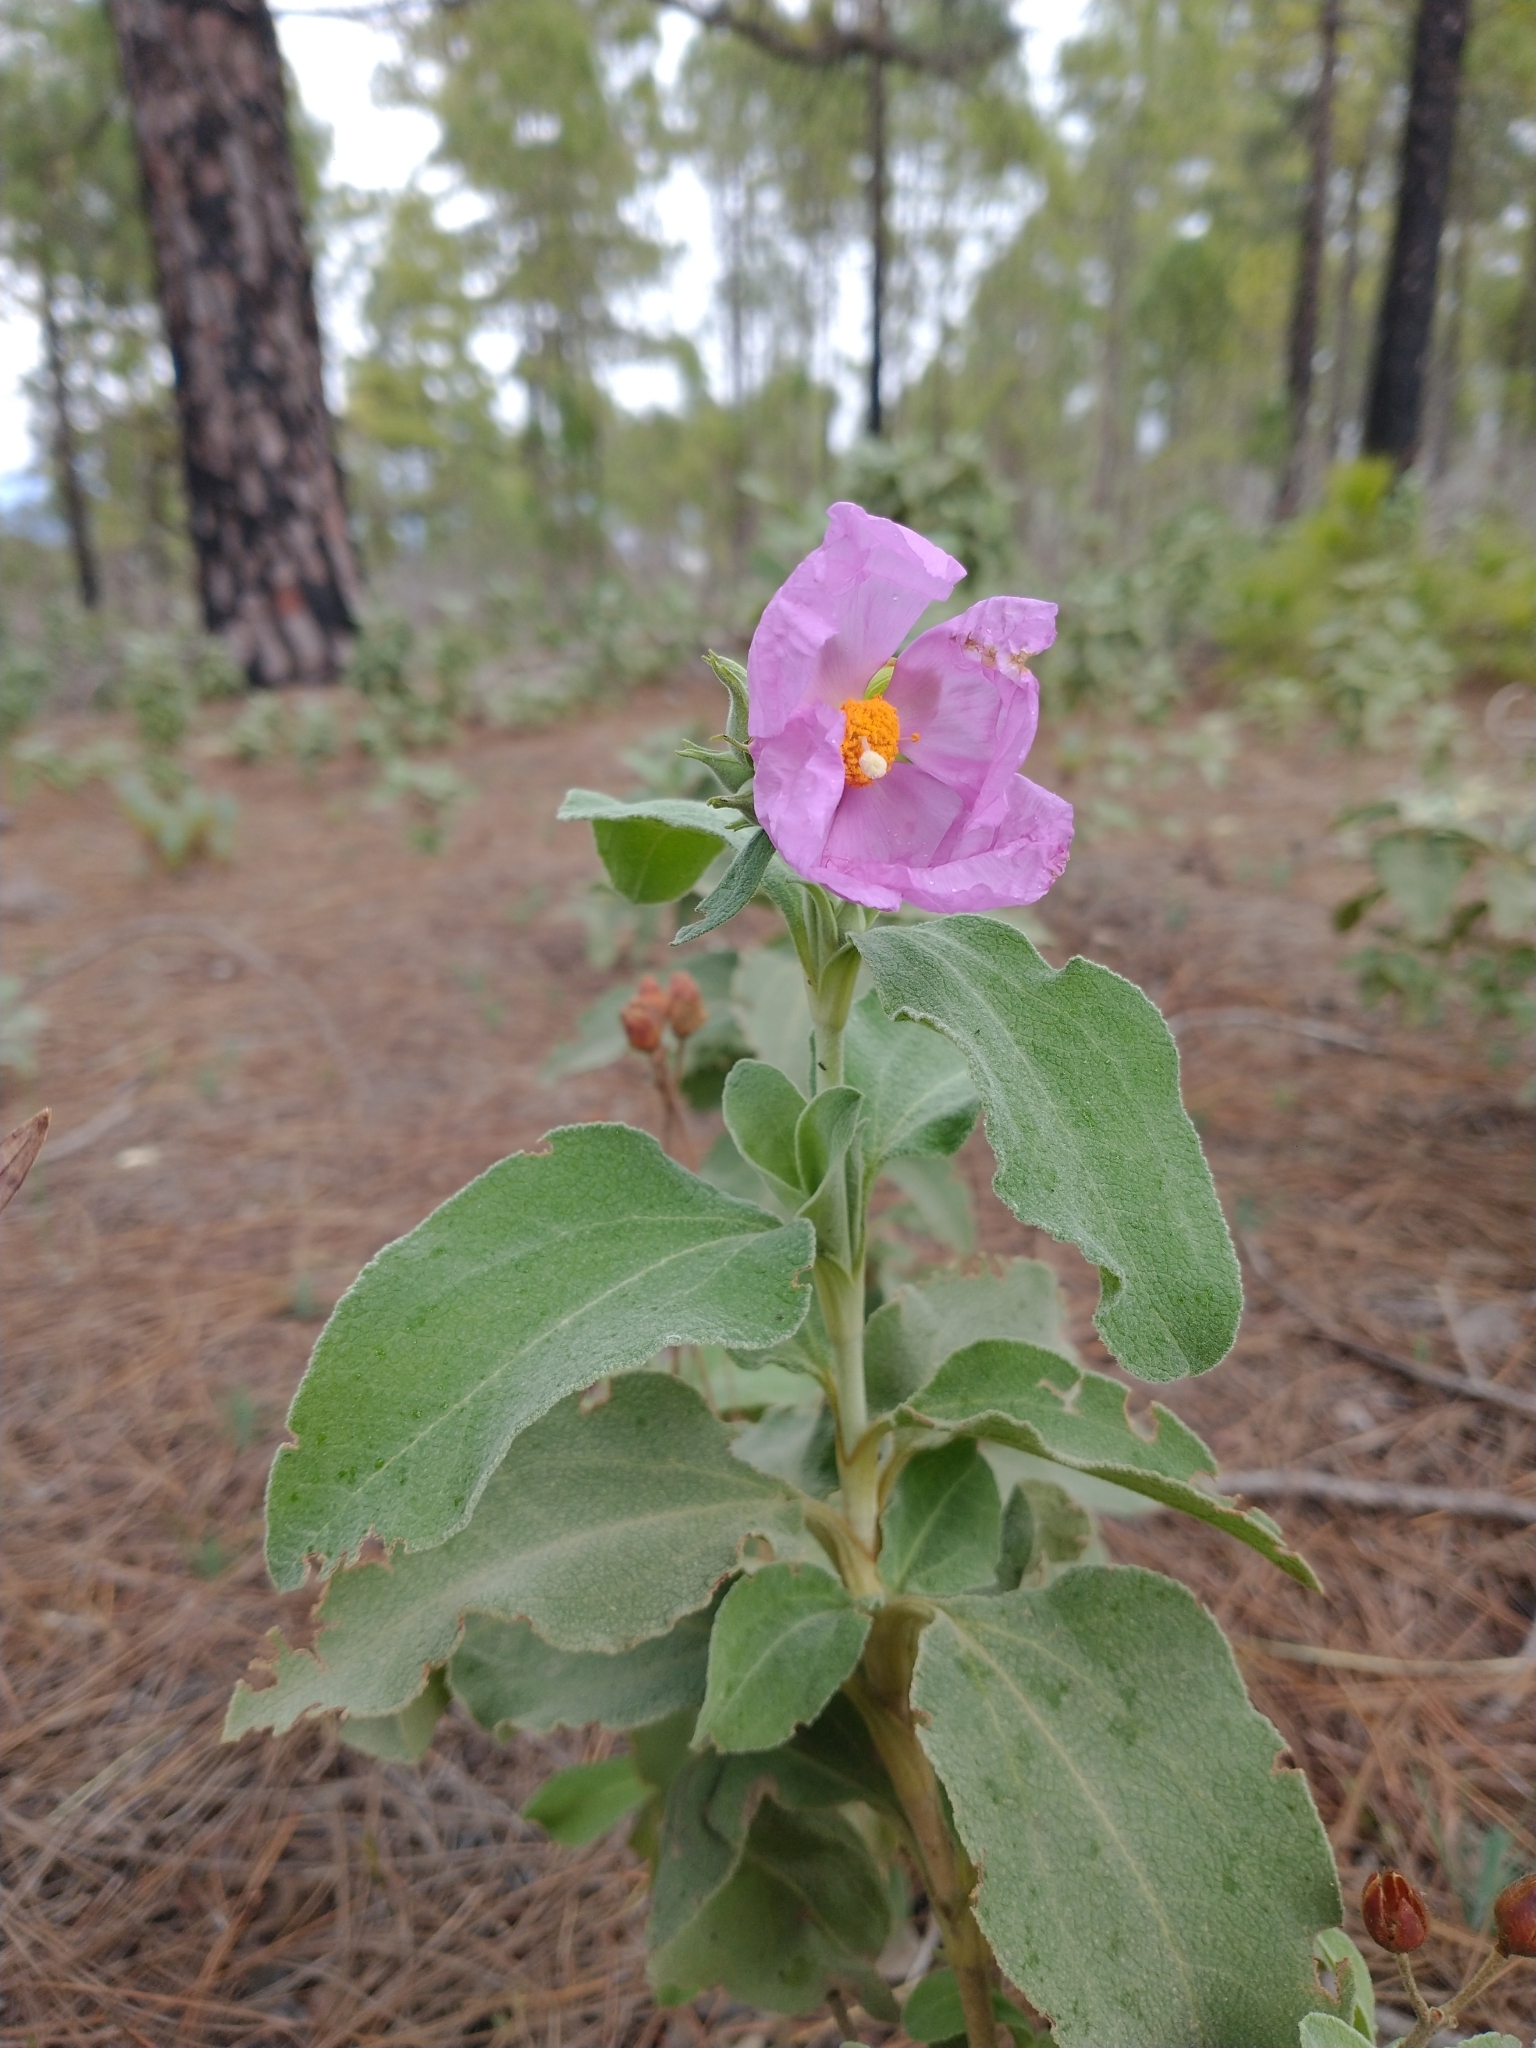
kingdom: Plantae
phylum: Tracheophyta
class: Magnoliopsida
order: Malvales
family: Cistaceae
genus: Cistus
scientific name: Cistus symphytifolius
